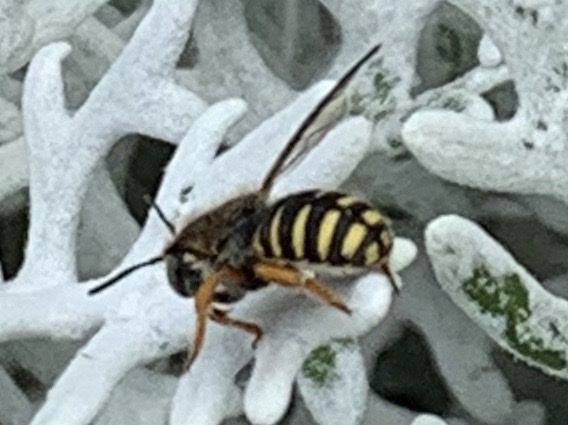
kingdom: Animalia
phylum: Arthropoda
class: Insecta
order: Hymenoptera
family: Megachilidae
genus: Anthidium
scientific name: Anthidium oblongatum
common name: Oblong wool carder bee
